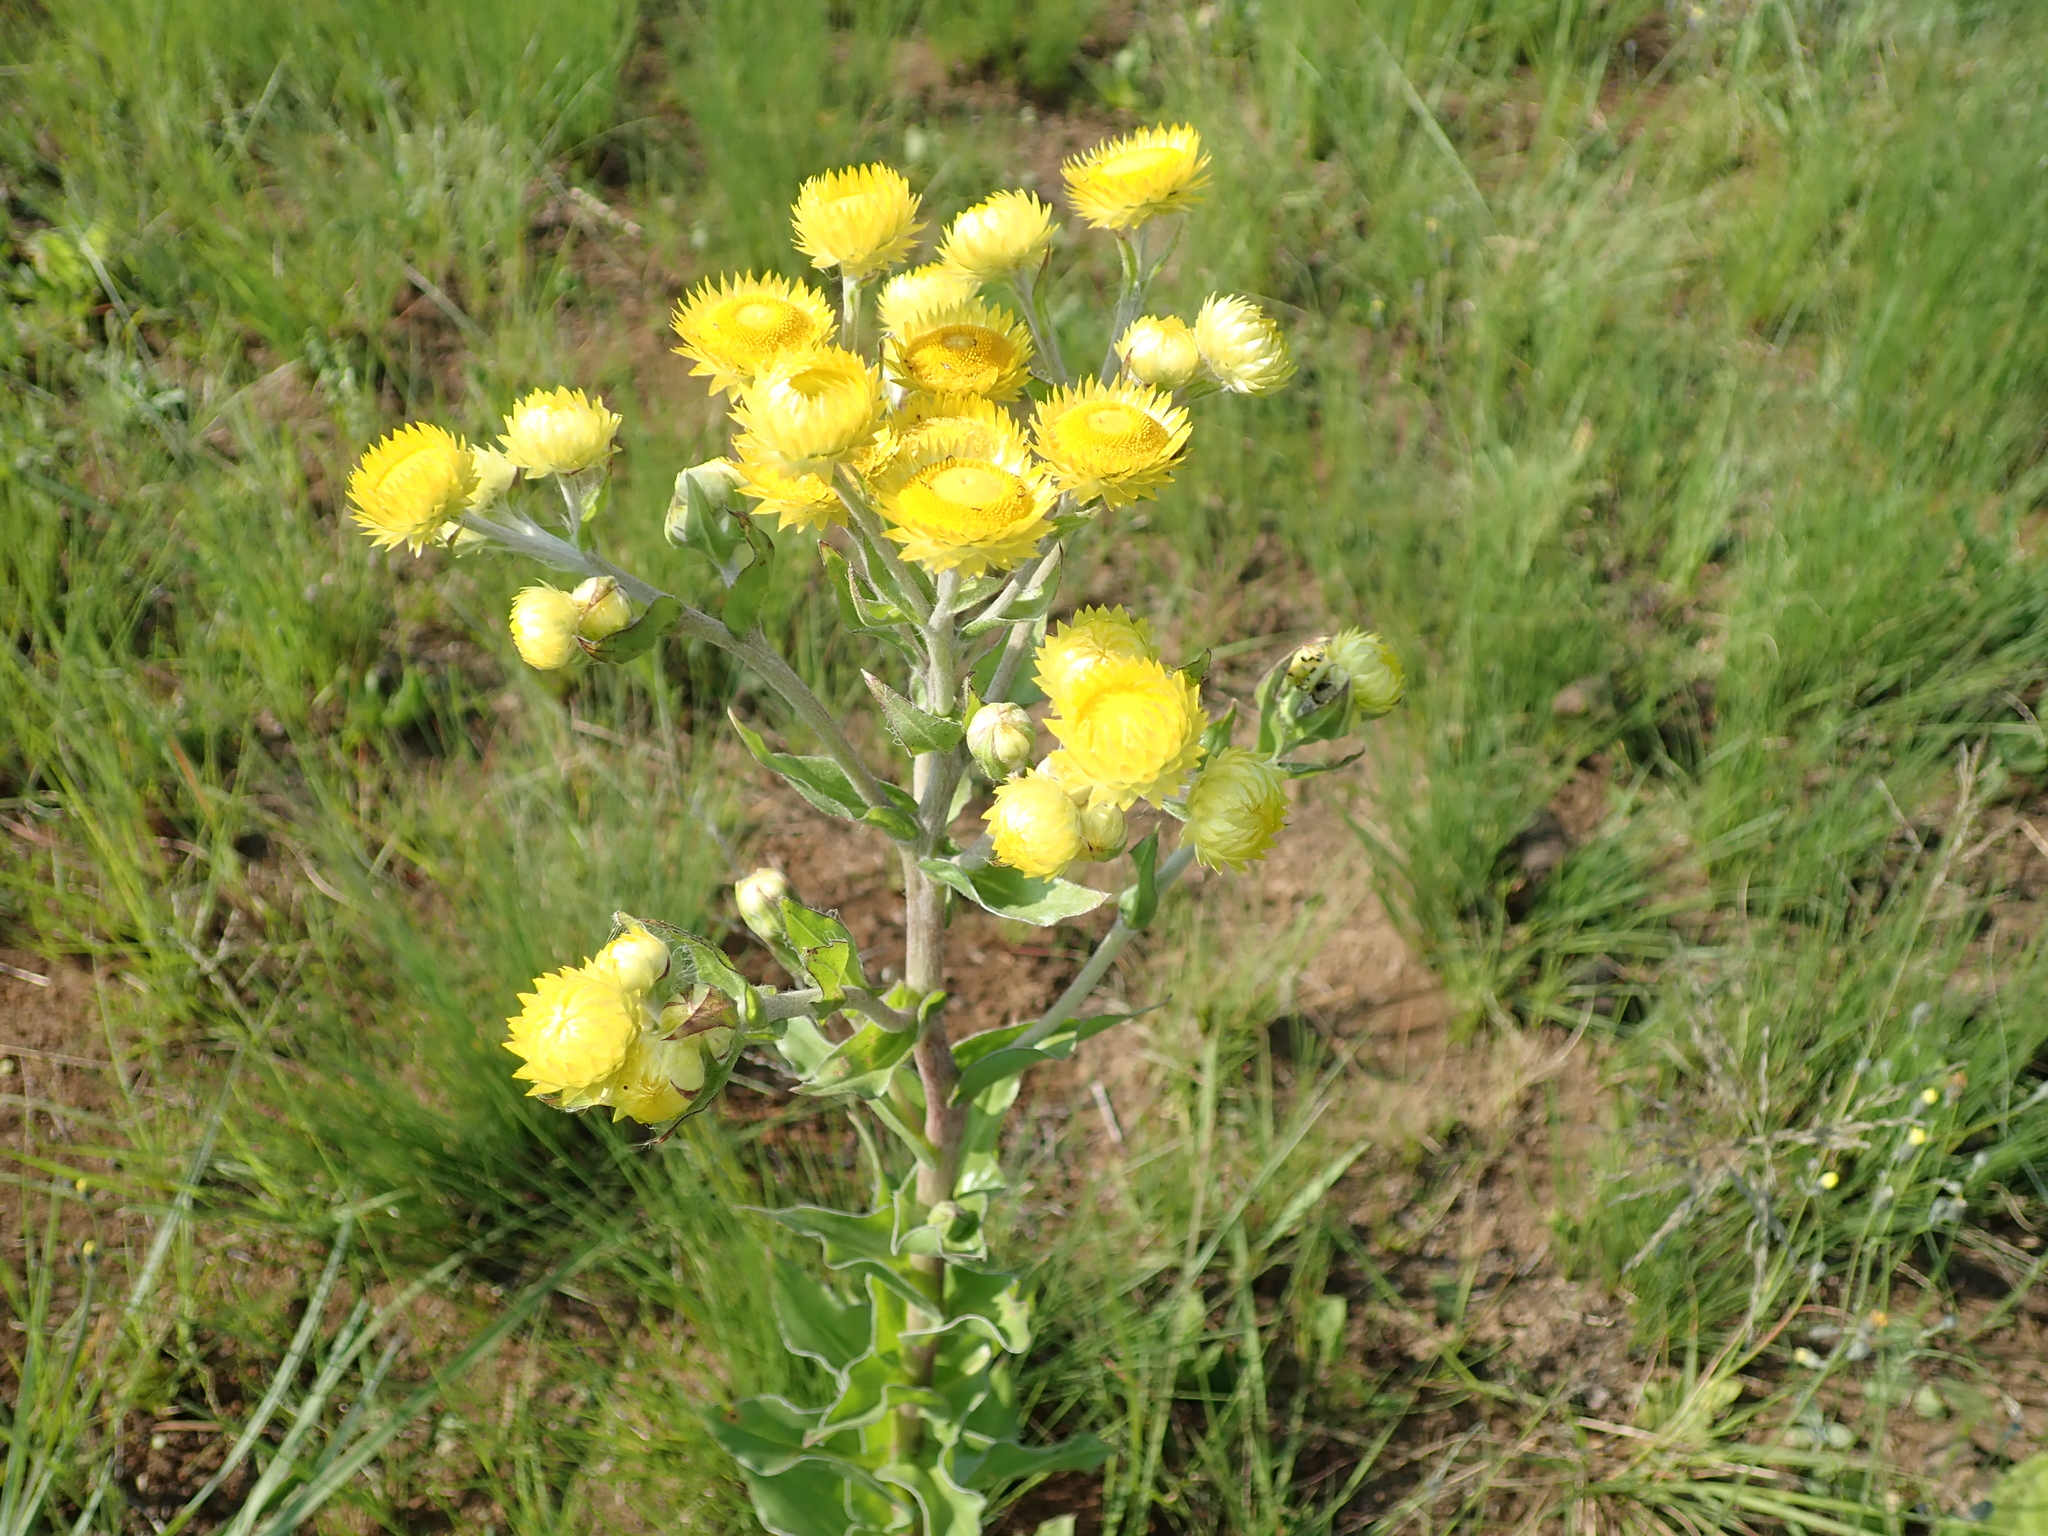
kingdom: Plantae
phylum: Tracheophyta
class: Magnoliopsida
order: Asterales
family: Asteraceae
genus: Helichrysum
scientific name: Helichrysum cooperi
